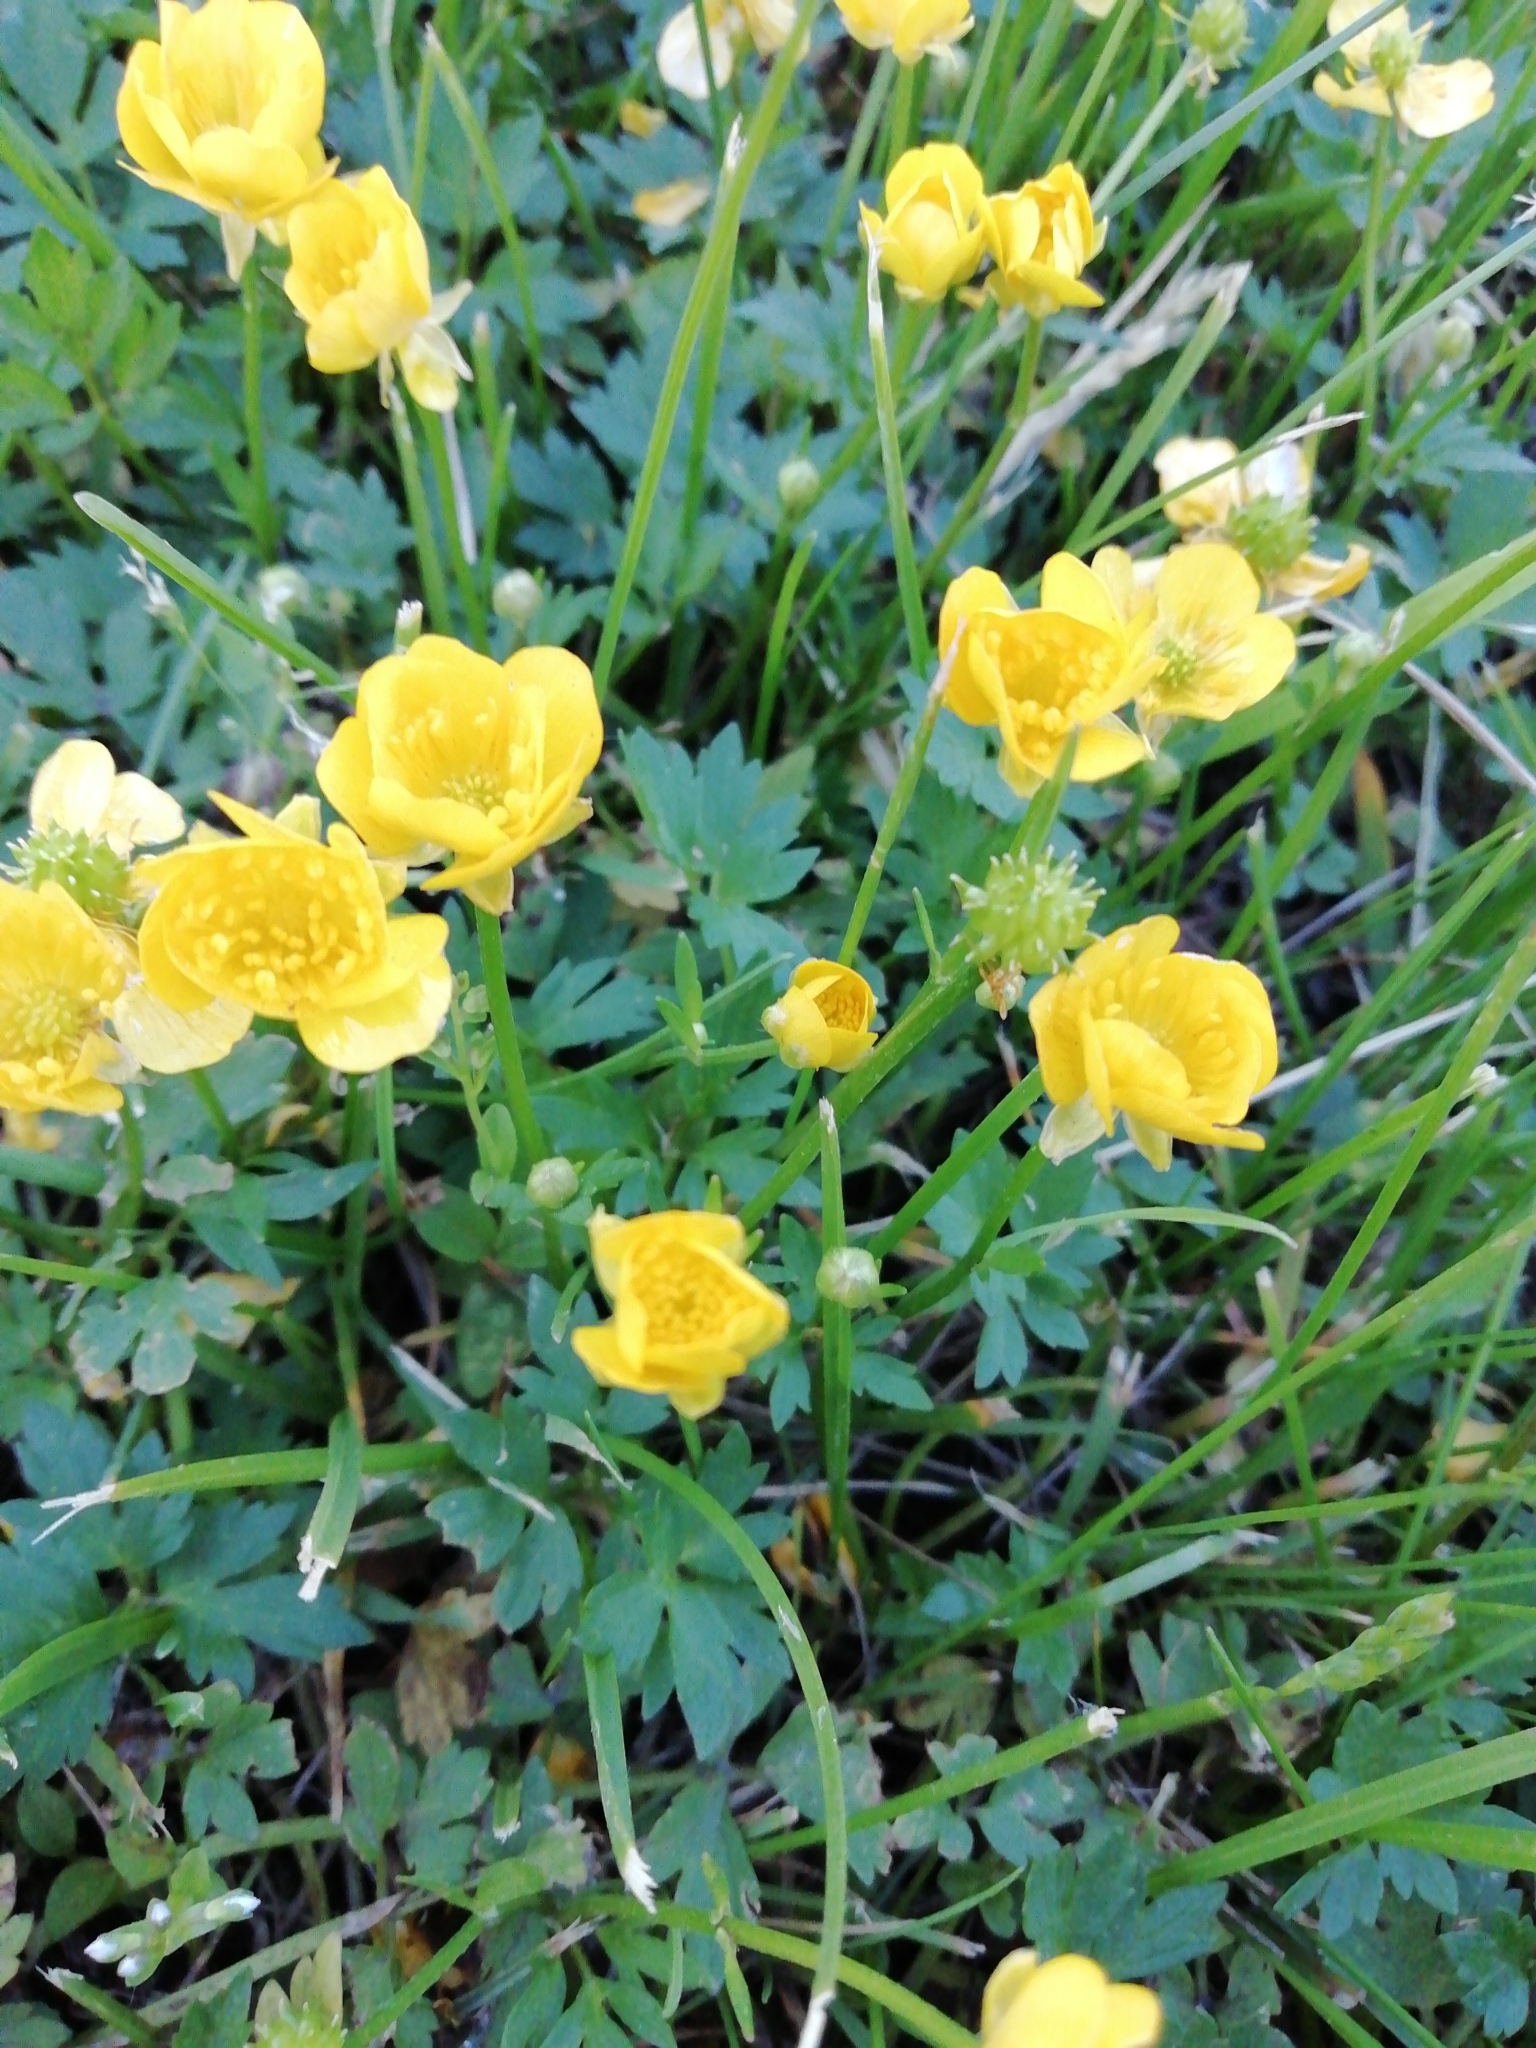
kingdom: Plantae
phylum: Tracheophyta
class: Magnoliopsida
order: Ranunculales
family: Ranunculaceae
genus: Ranunculus
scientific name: Ranunculus repens
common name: Creeping buttercup
